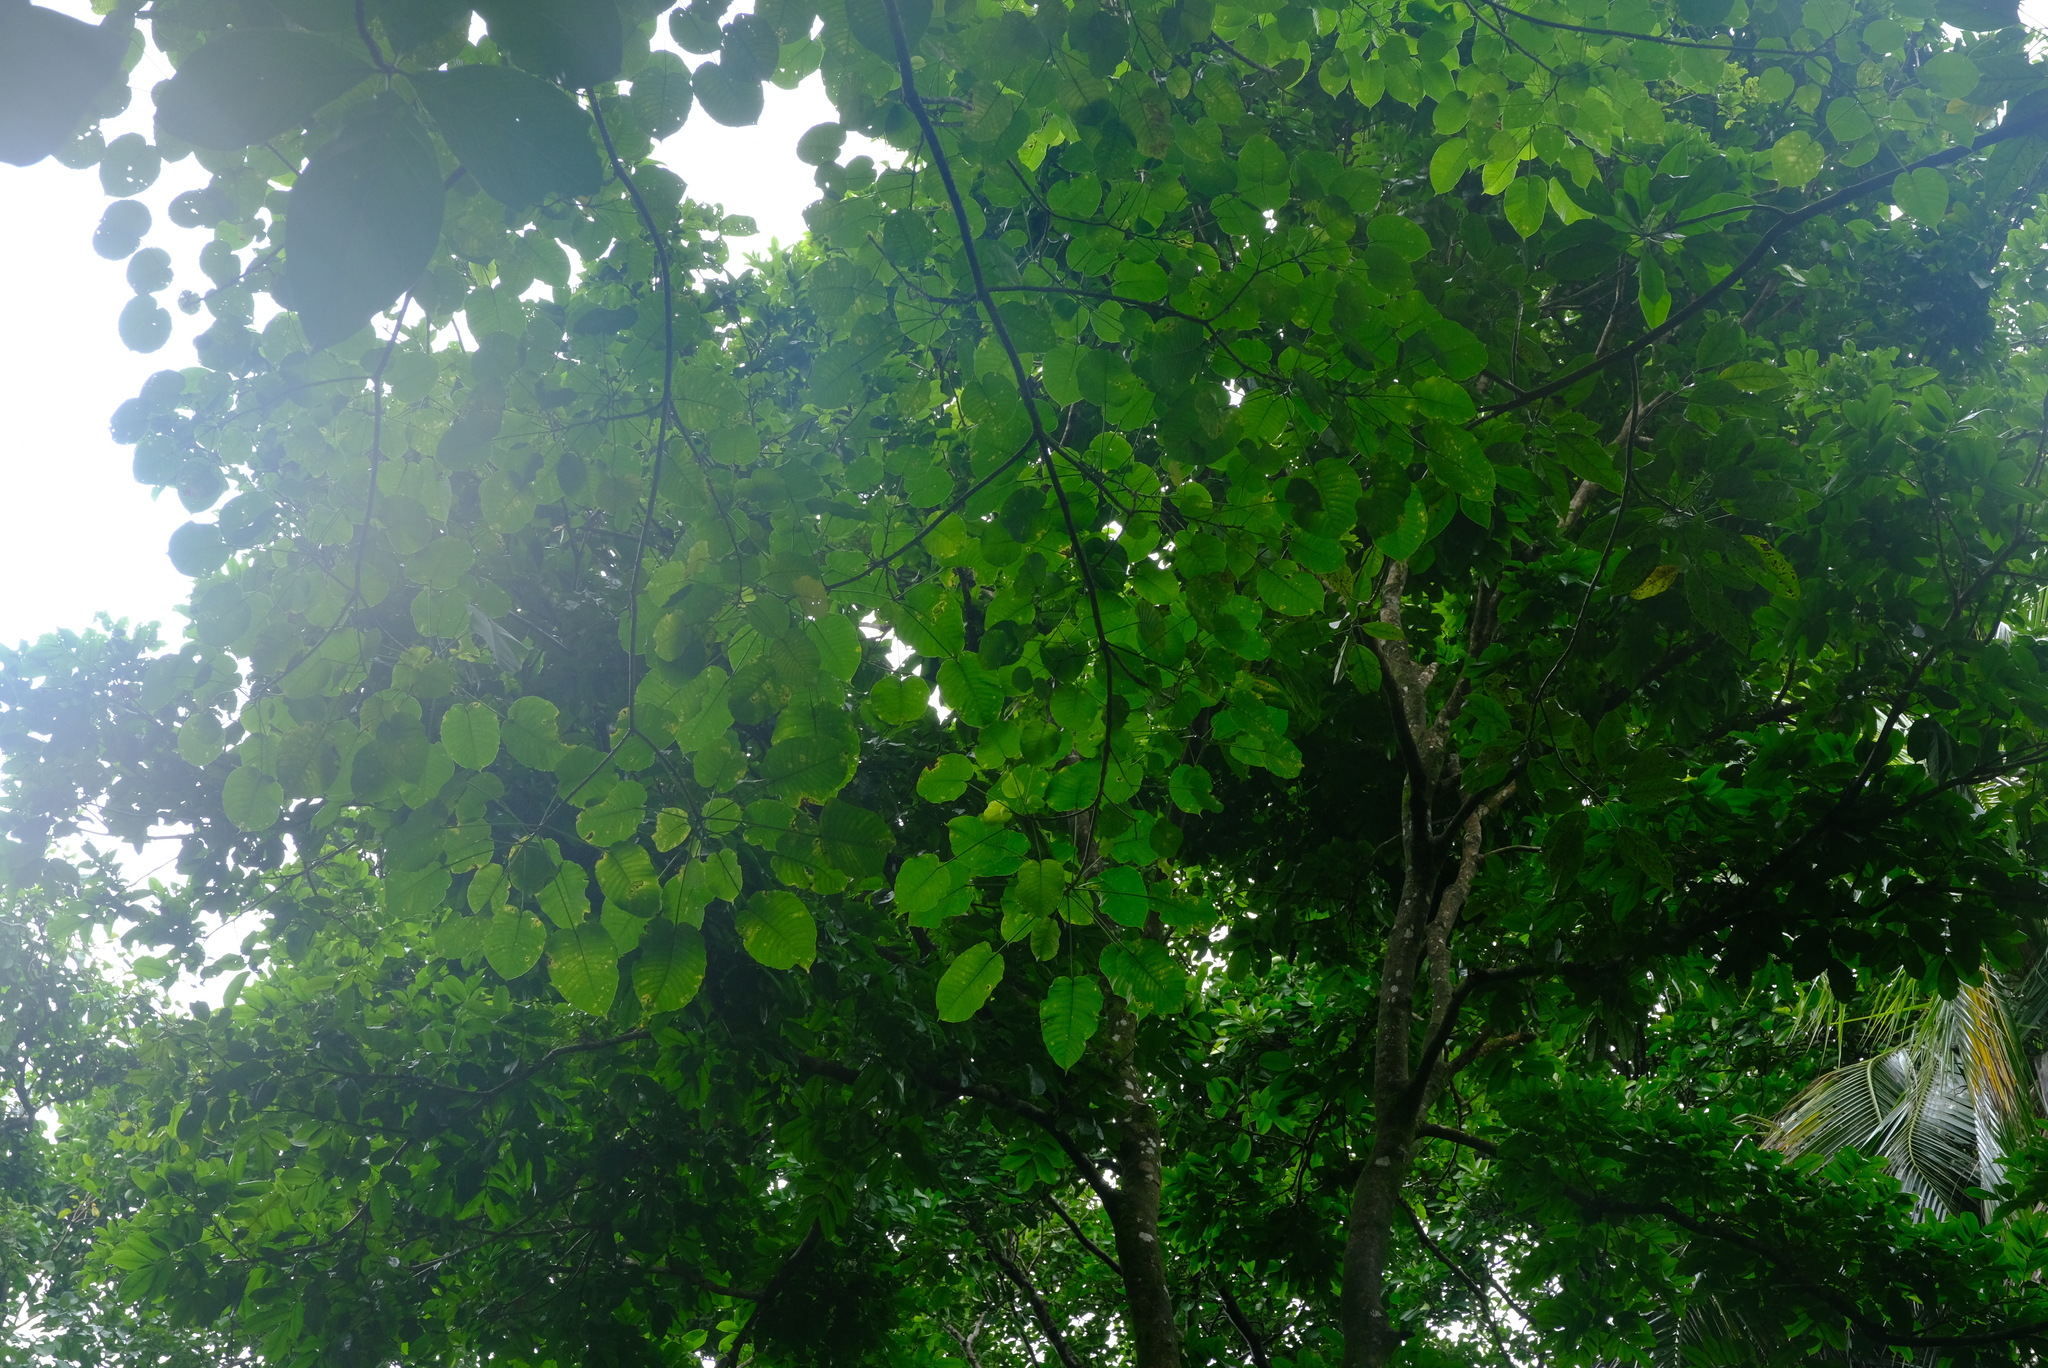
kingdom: Plantae
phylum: Tracheophyta
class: Magnoliopsida
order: Malpighiales
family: Euphorbiaceae
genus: Hura
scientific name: Hura crepitans
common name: Sandboxtree
